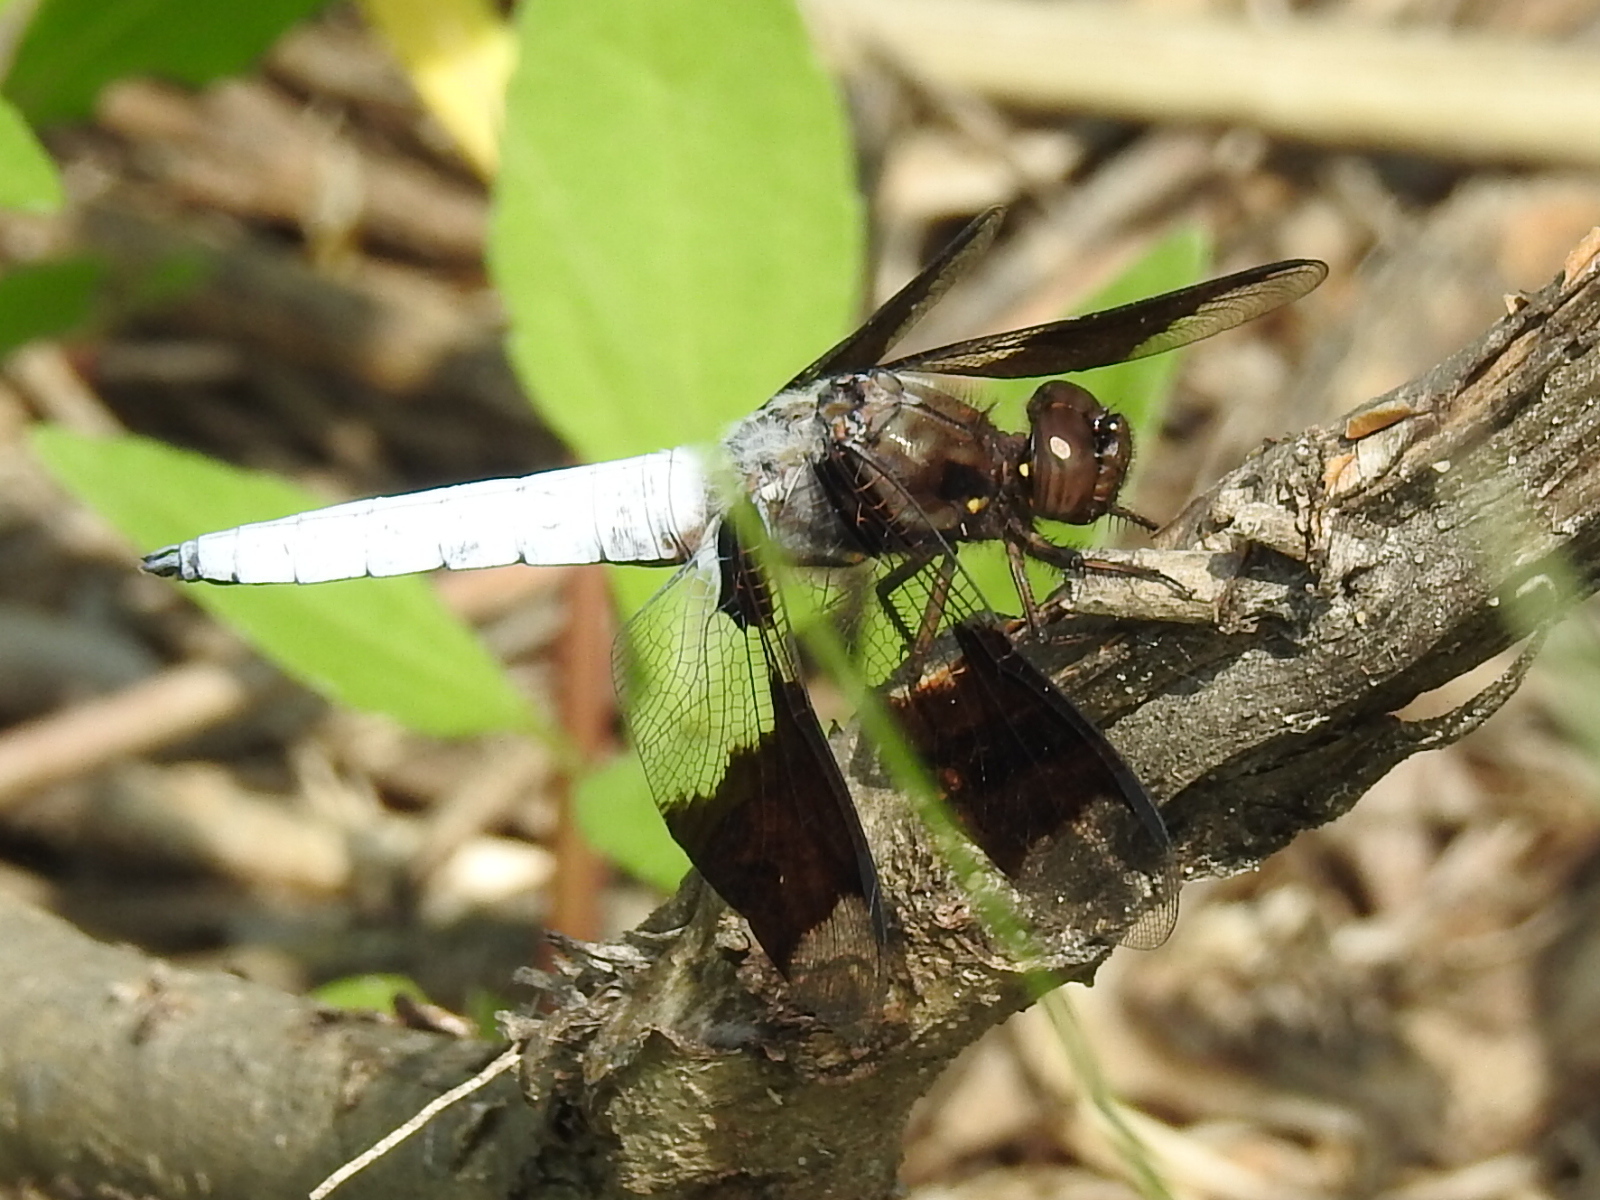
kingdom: Animalia
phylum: Arthropoda
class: Insecta
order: Odonata
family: Libellulidae
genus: Plathemis
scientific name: Plathemis lydia
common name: Common whitetail
